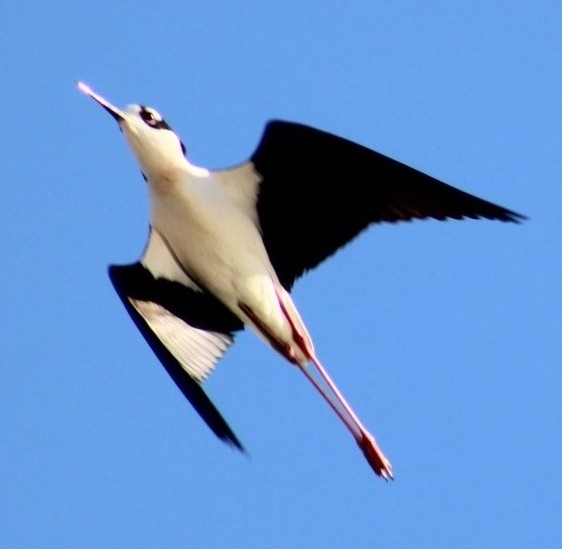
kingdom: Animalia
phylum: Chordata
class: Aves
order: Charadriiformes
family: Recurvirostridae
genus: Himantopus
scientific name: Himantopus mexicanus
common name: Black-necked stilt
